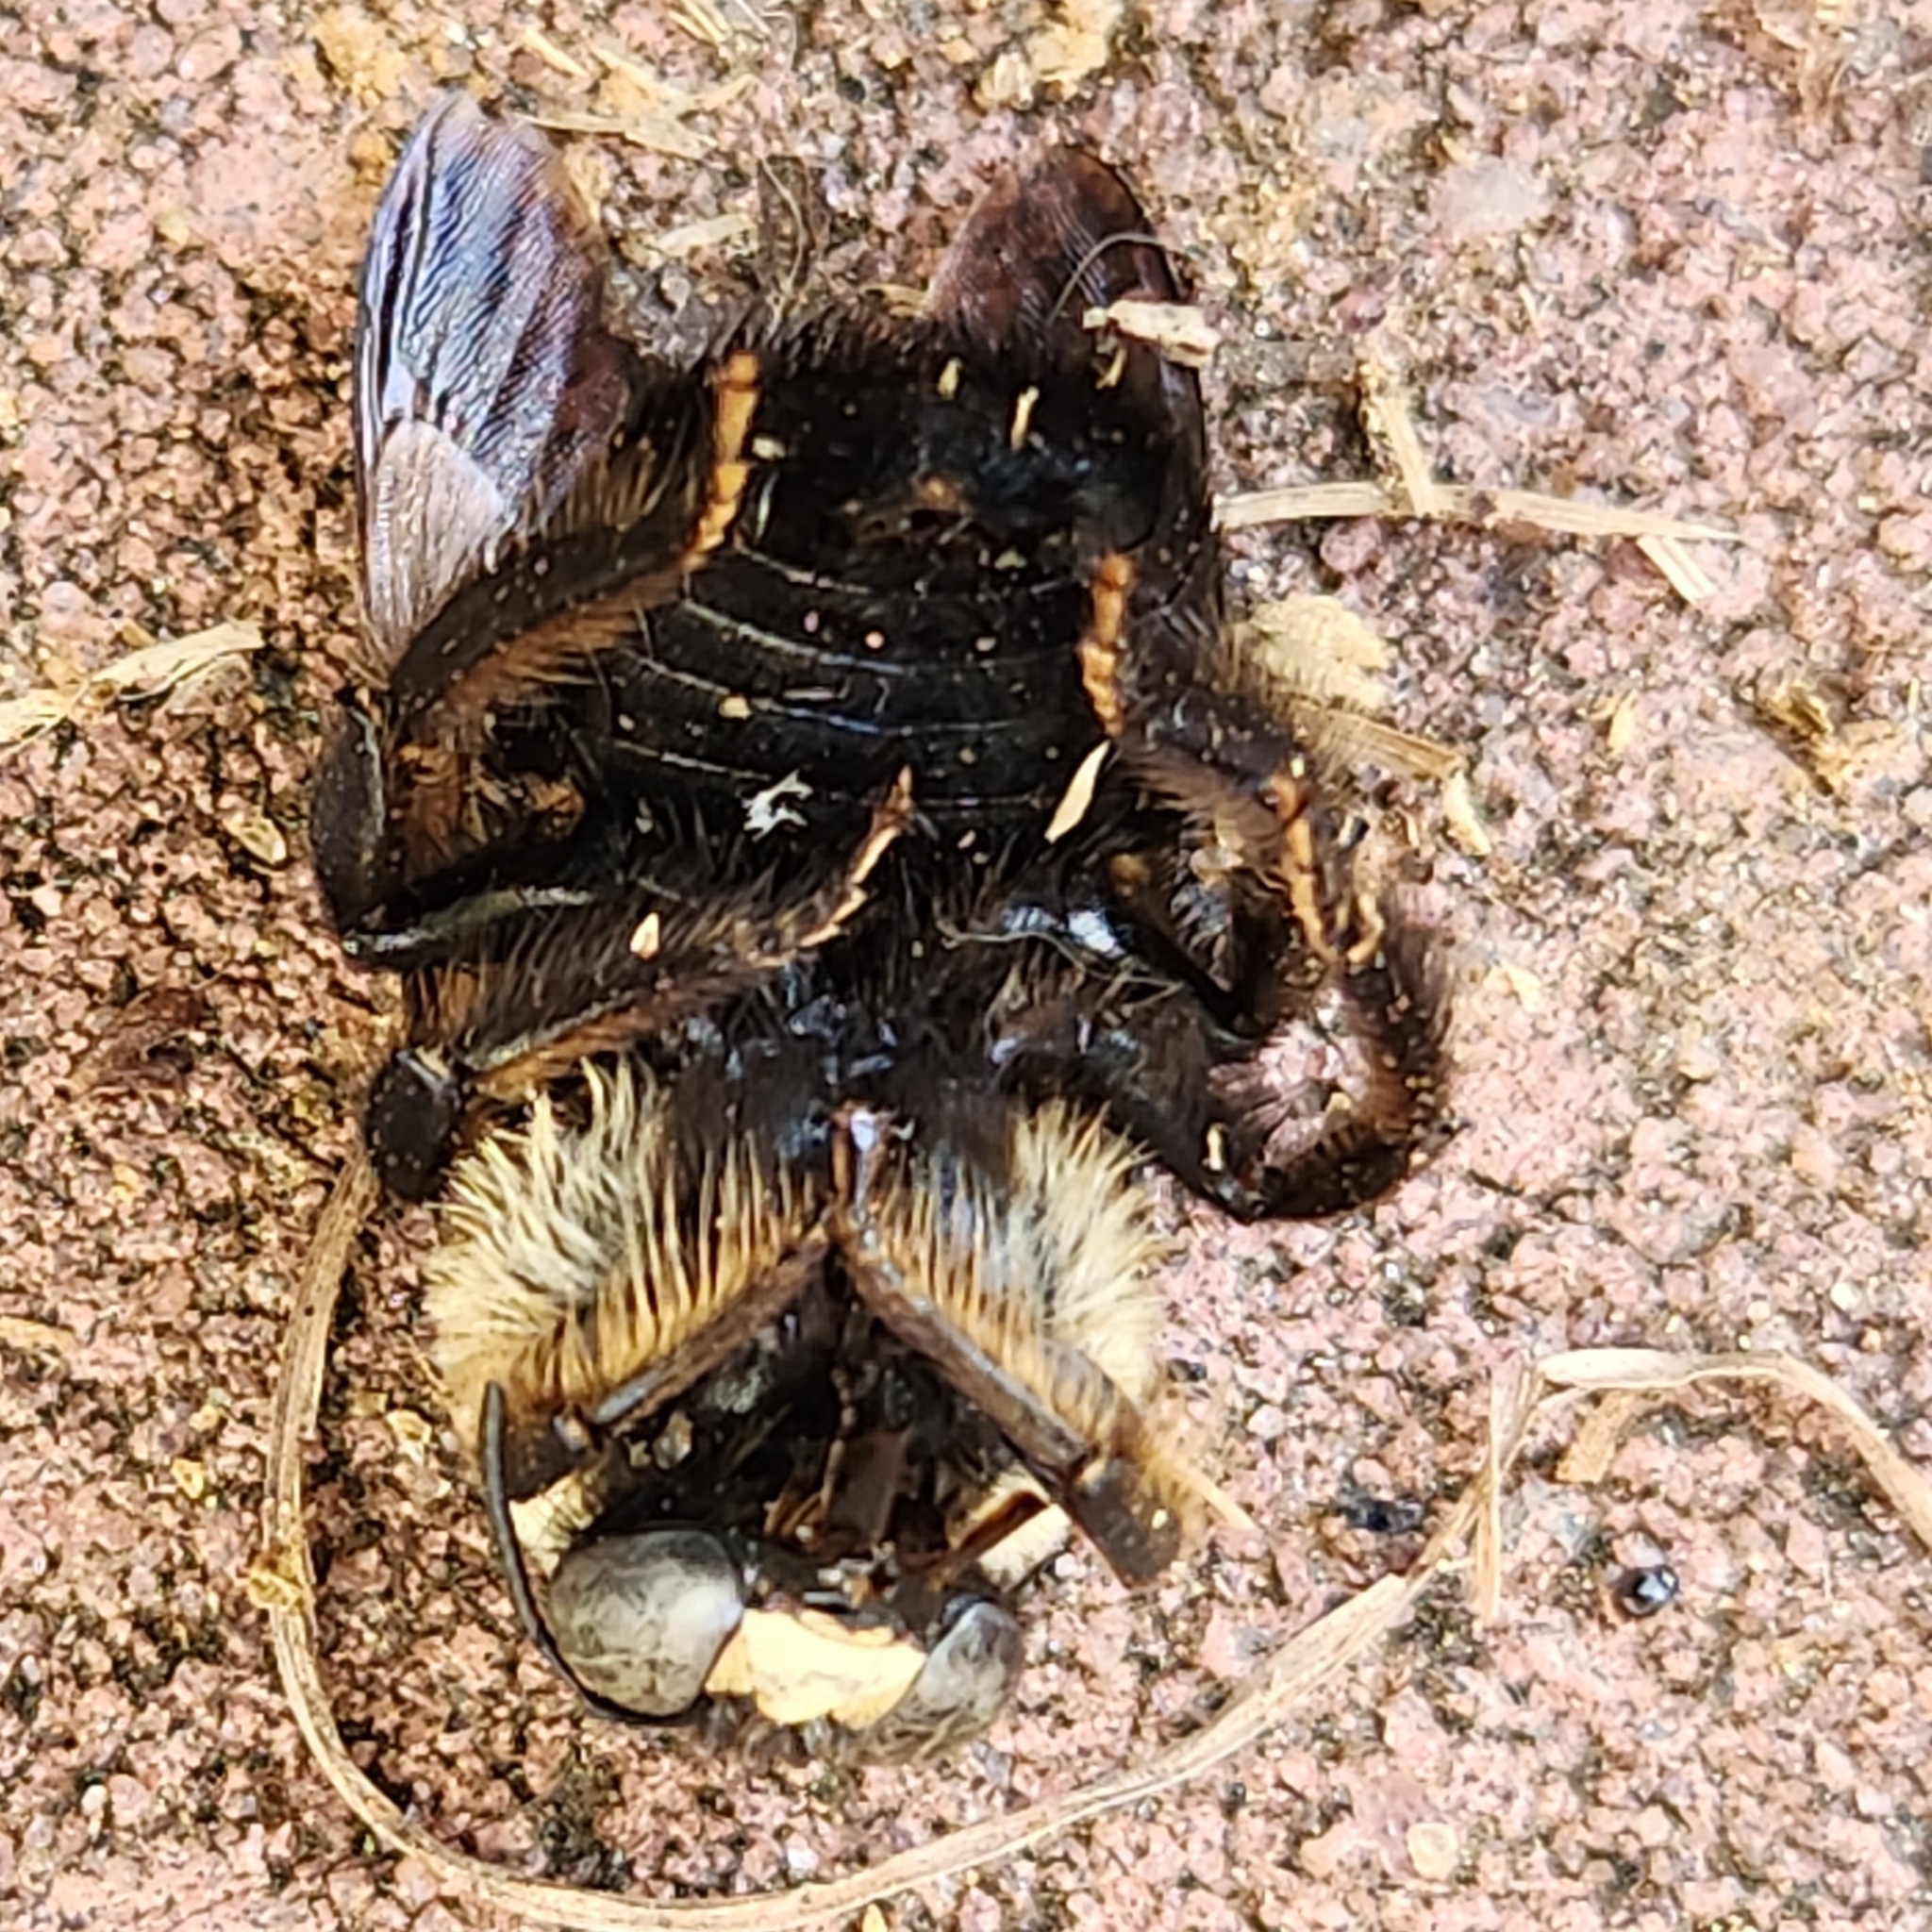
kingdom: Animalia
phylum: Arthropoda
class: Insecta
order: Hymenoptera
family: Apidae
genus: Xylocopa
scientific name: Xylocopa virginica
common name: Carpenter bee
